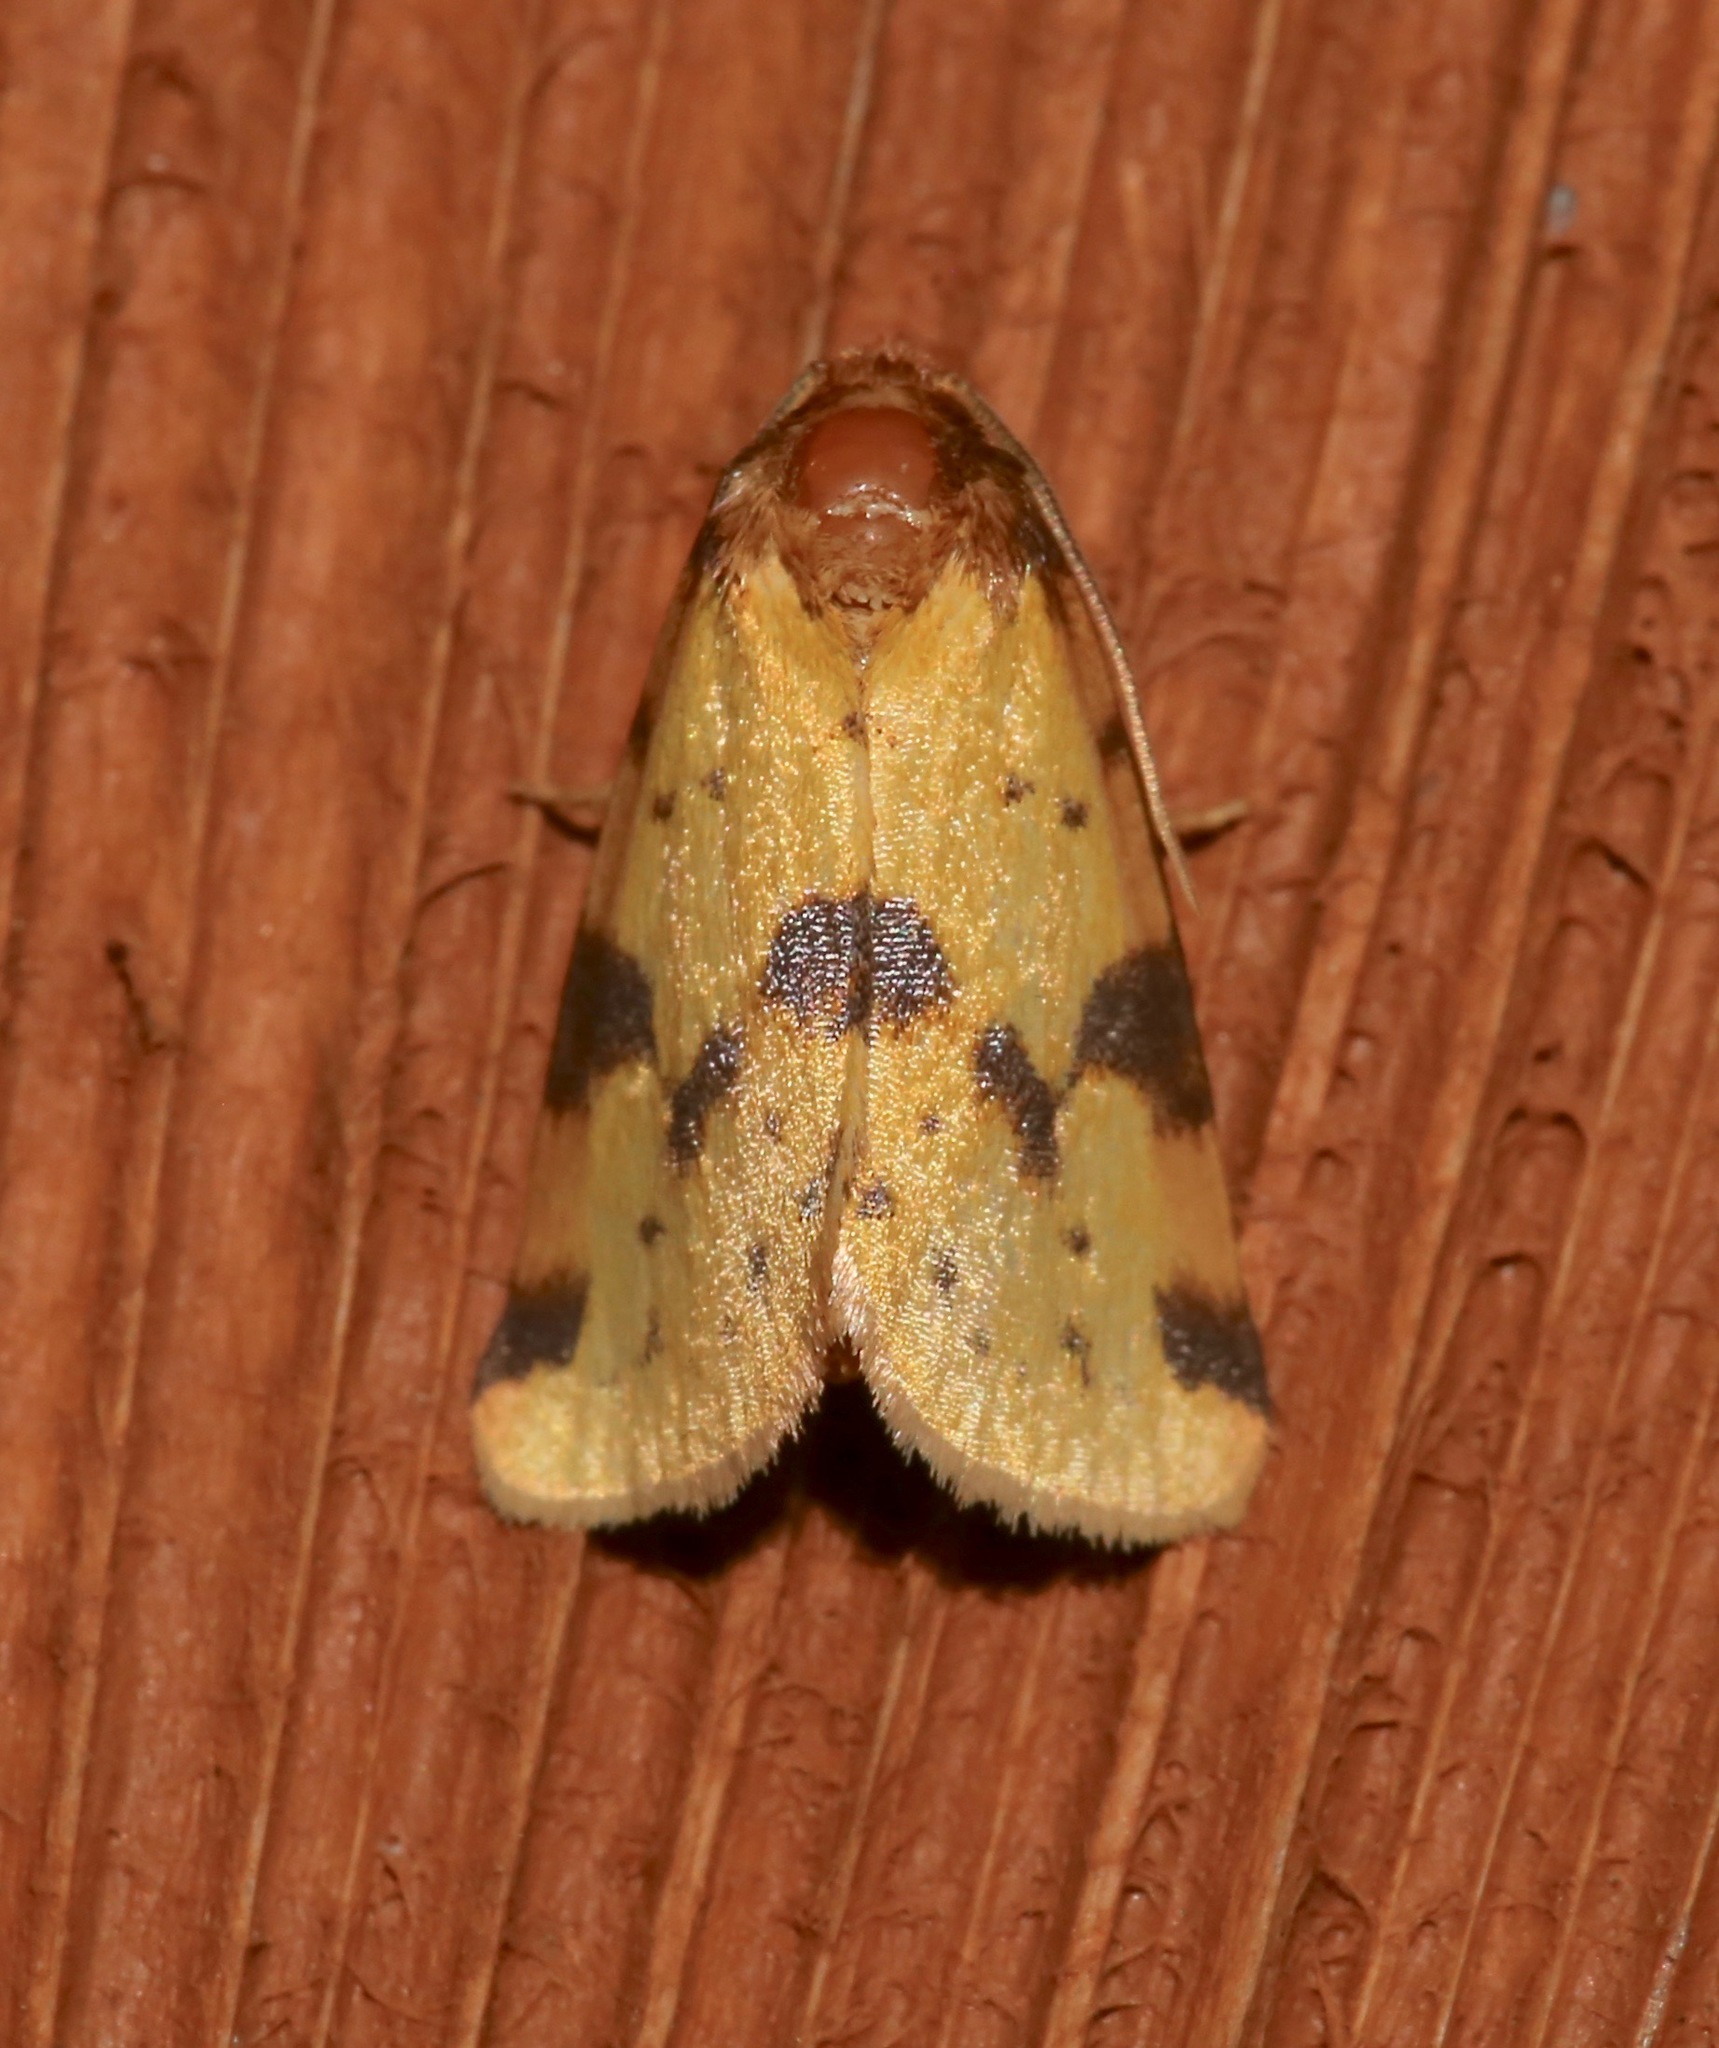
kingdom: Animalia
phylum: Arthropoda
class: Insecta
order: Lepidoptera
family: Noctuidae
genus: Azenia
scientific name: Azenia obtusa
